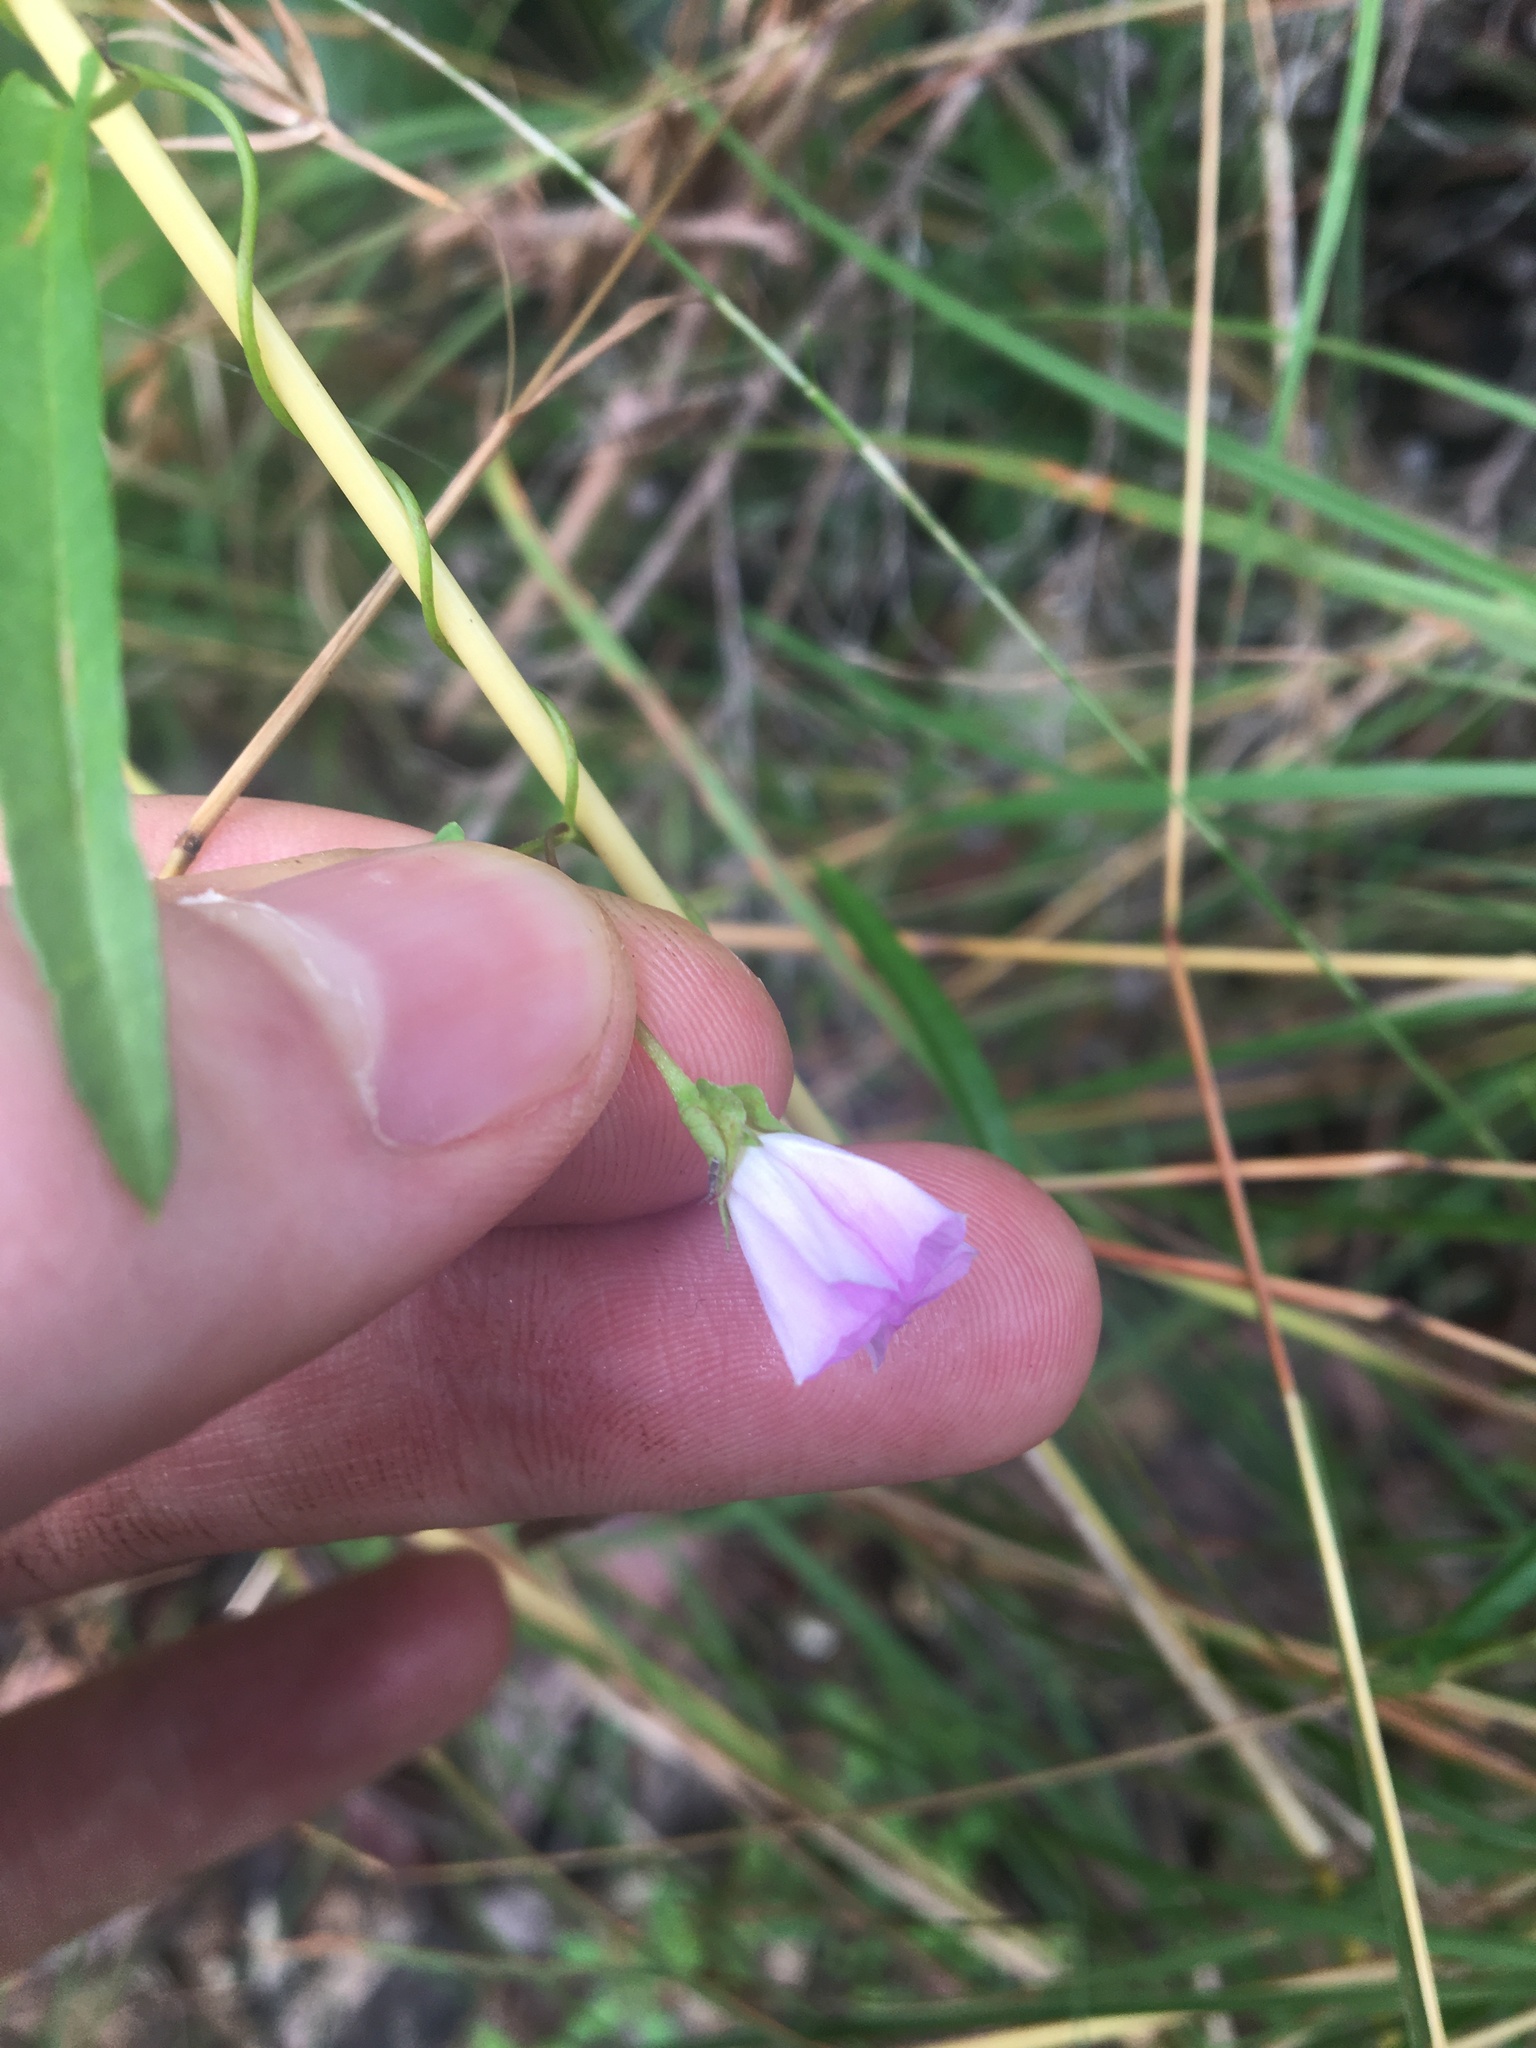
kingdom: Plantae
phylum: Tracheophyta
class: Magnoliopsida
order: Solanales
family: Convolvulaceae
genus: Polymeria
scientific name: Polymeria calycina
